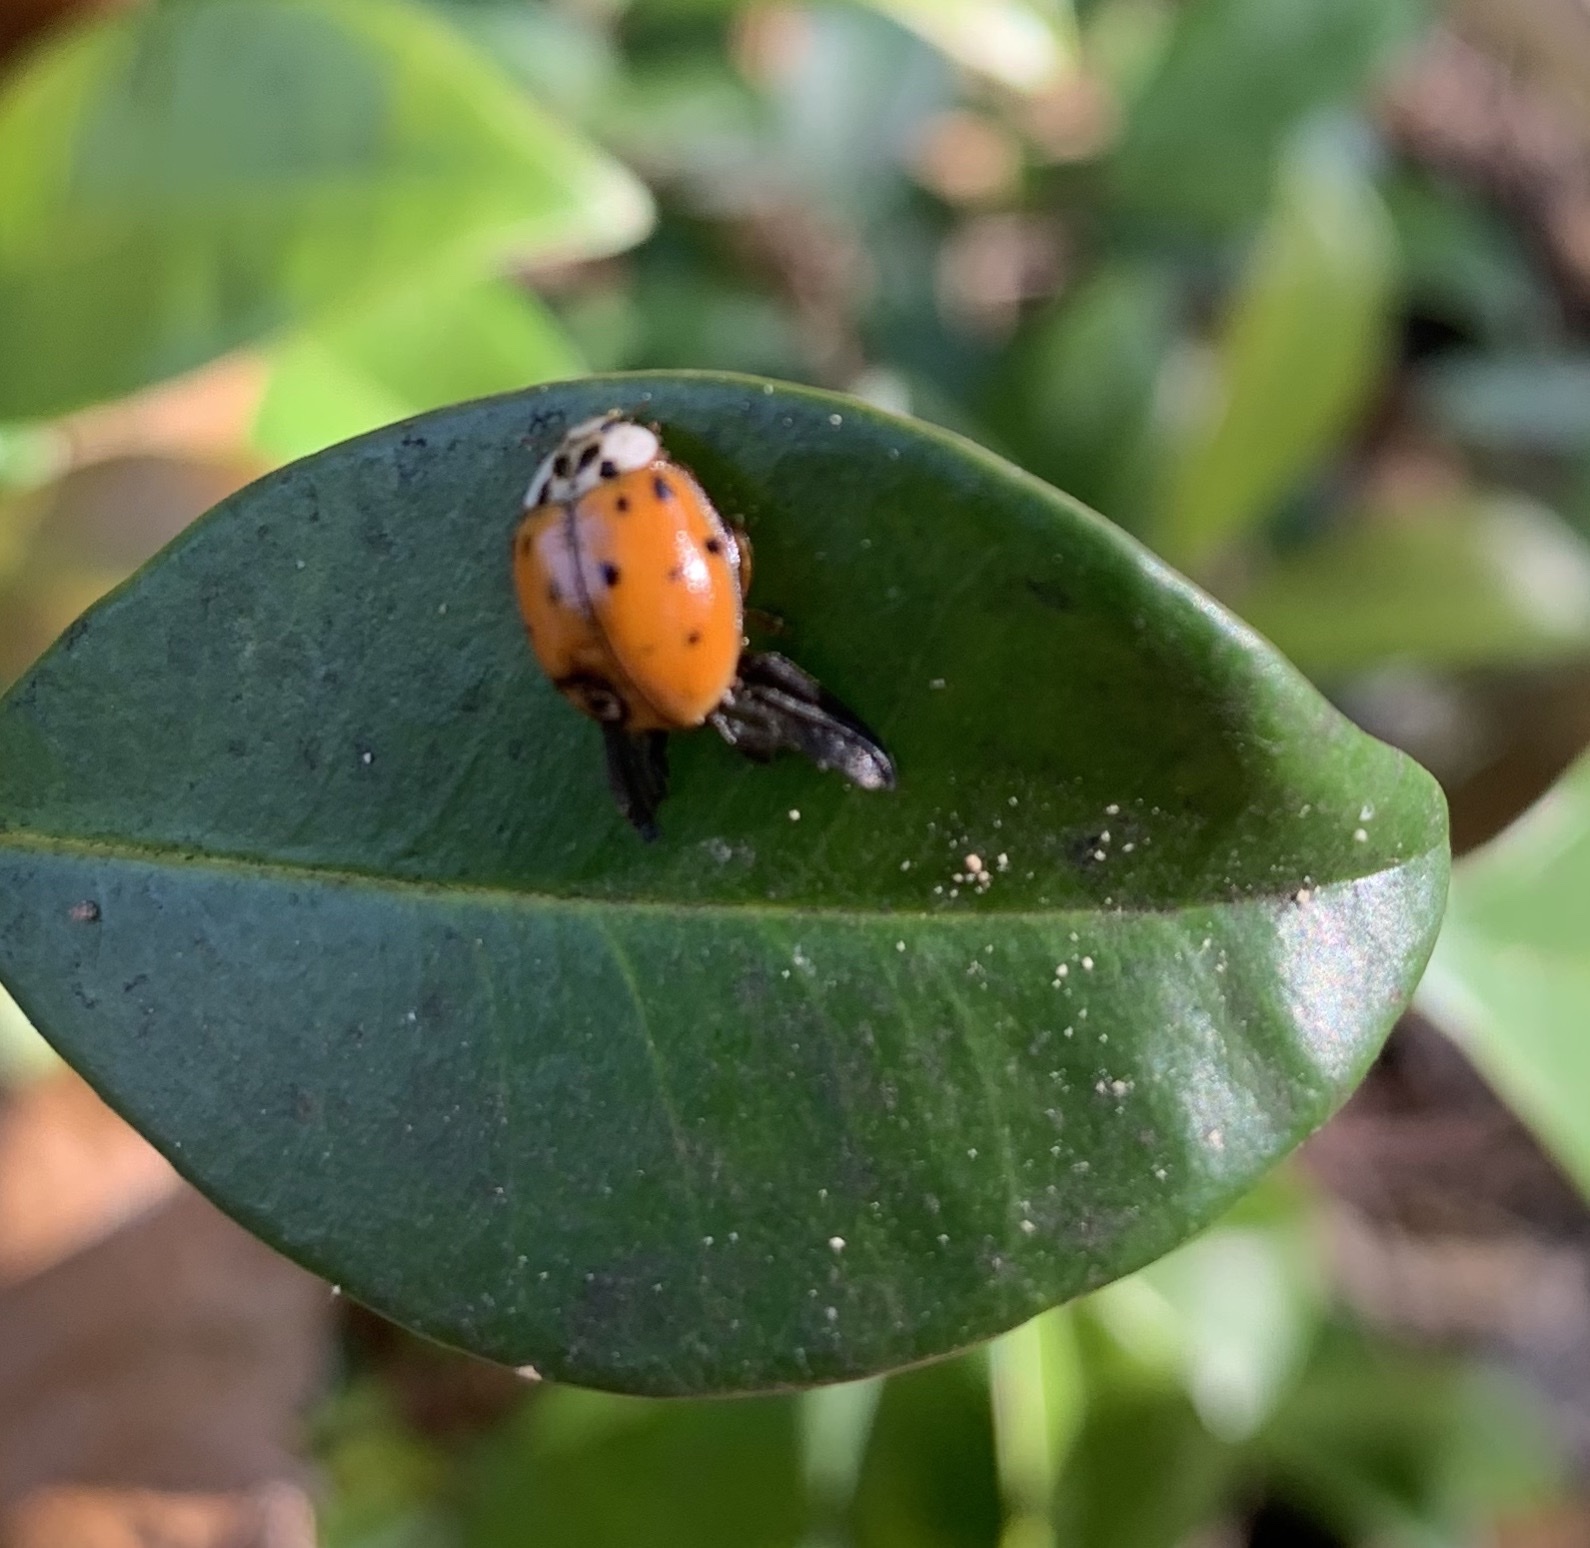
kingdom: Animalia
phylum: Arthropoda
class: Insecta
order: Coleoptera
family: Coccinellidae
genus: Harmonia
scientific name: Harmonia axyridis
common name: Harlequin ladybird
